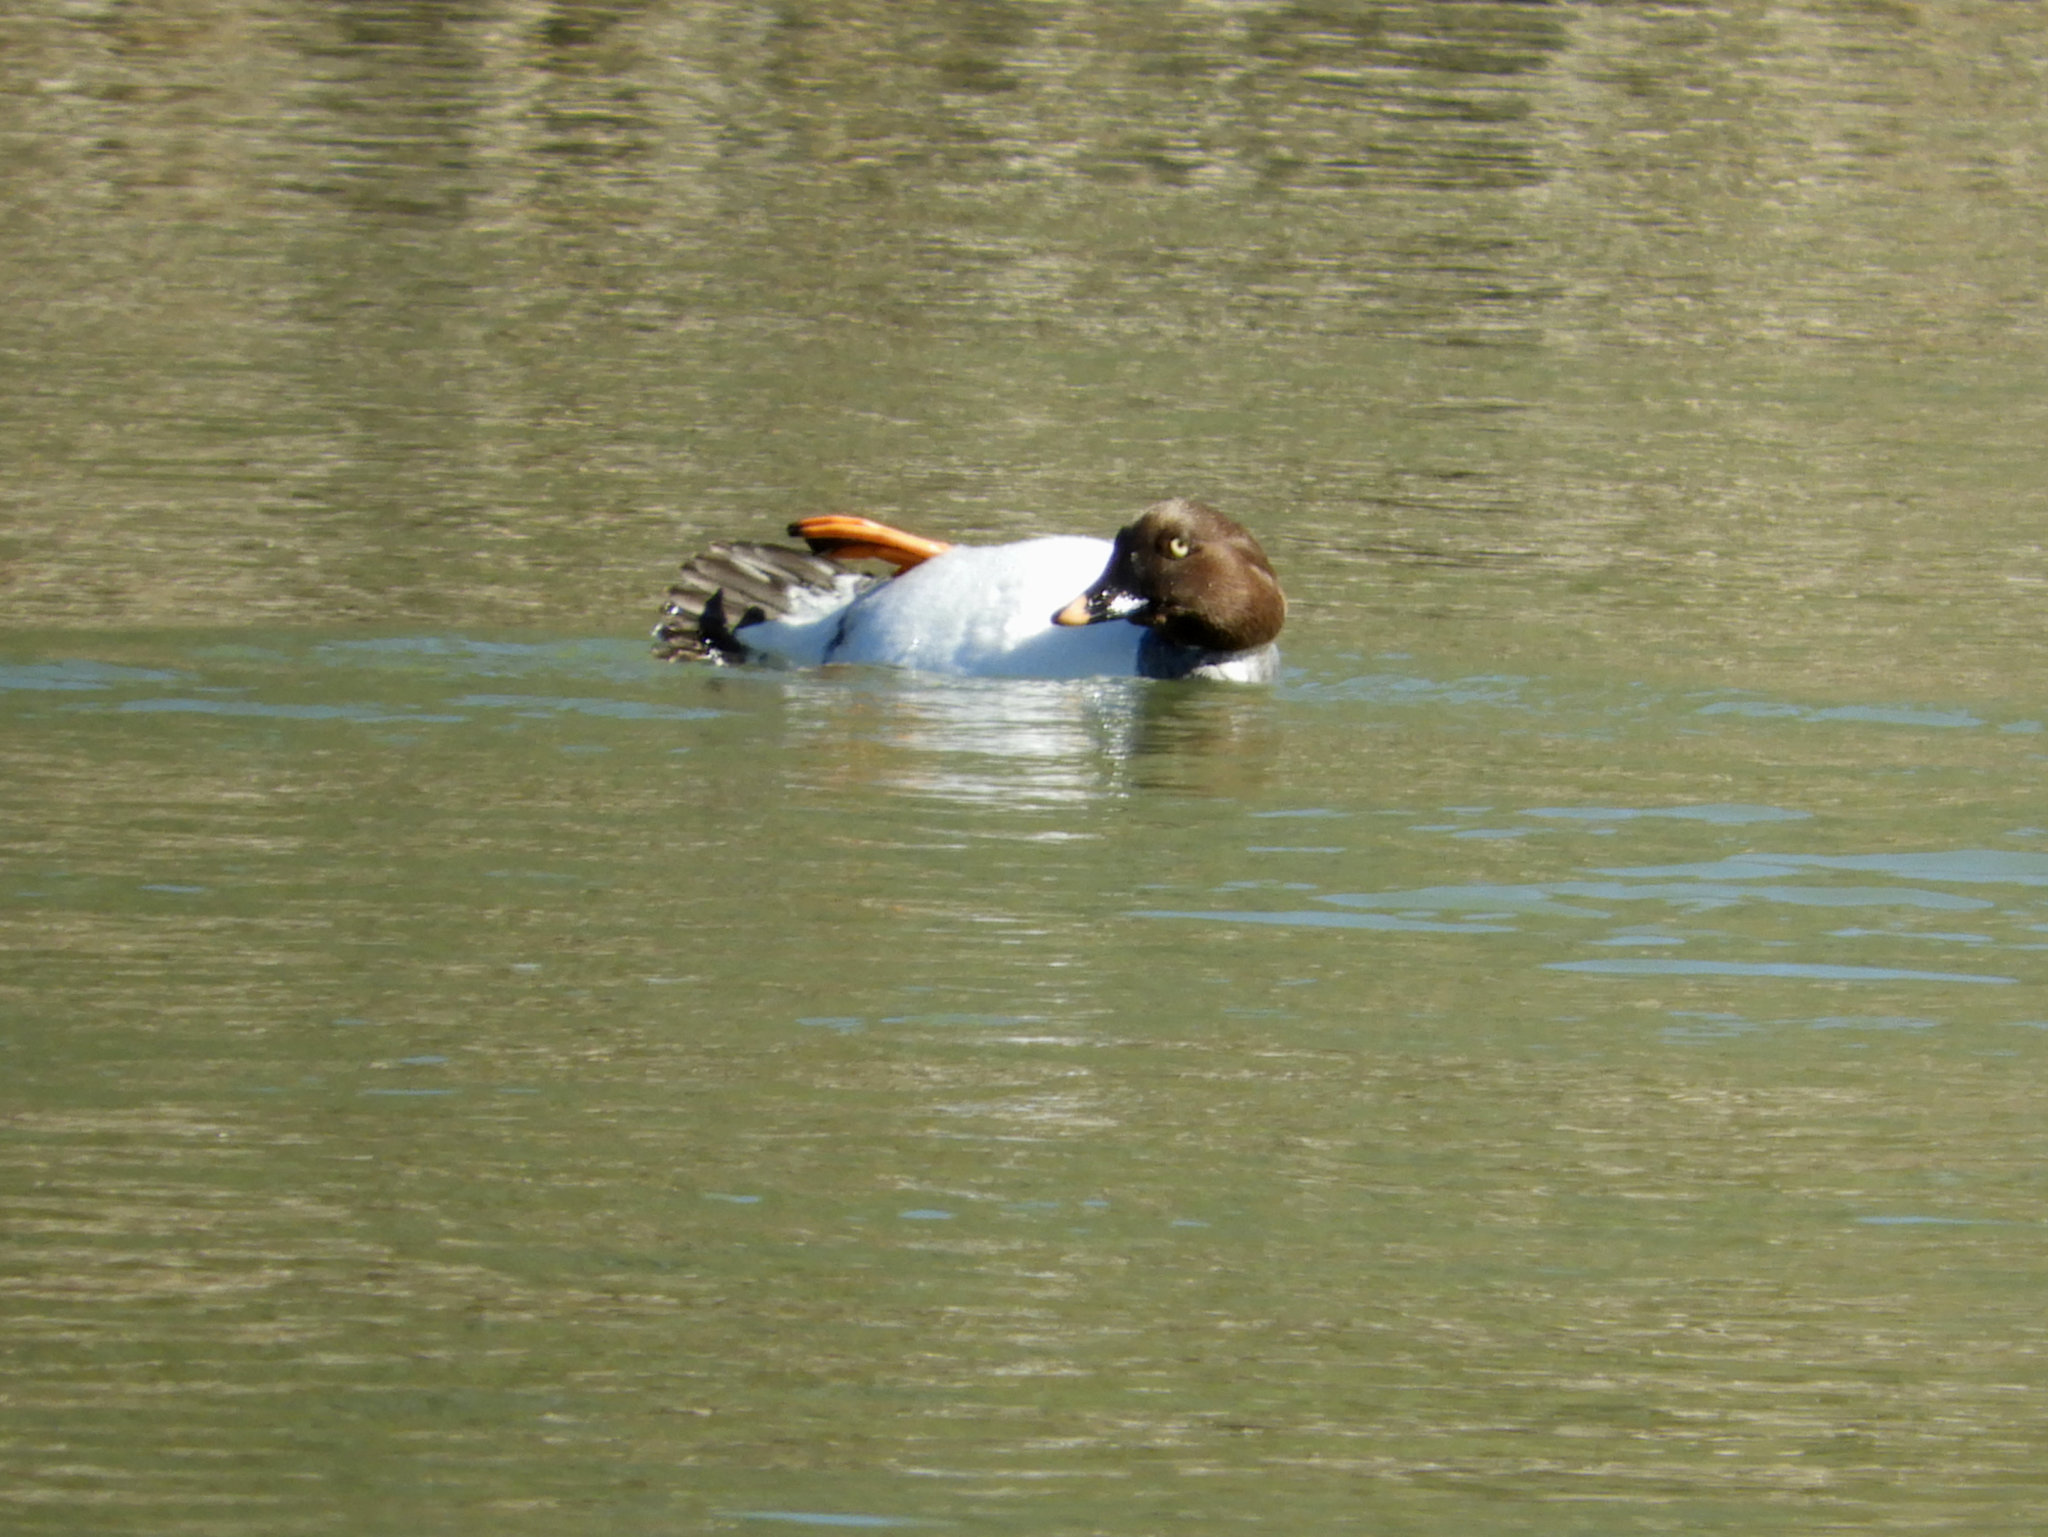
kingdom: Animalia
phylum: Chordata
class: Aves
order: Anseriformes
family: Anatidae
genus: Bucephala
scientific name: Bucephala clangula
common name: Common goldeneye
